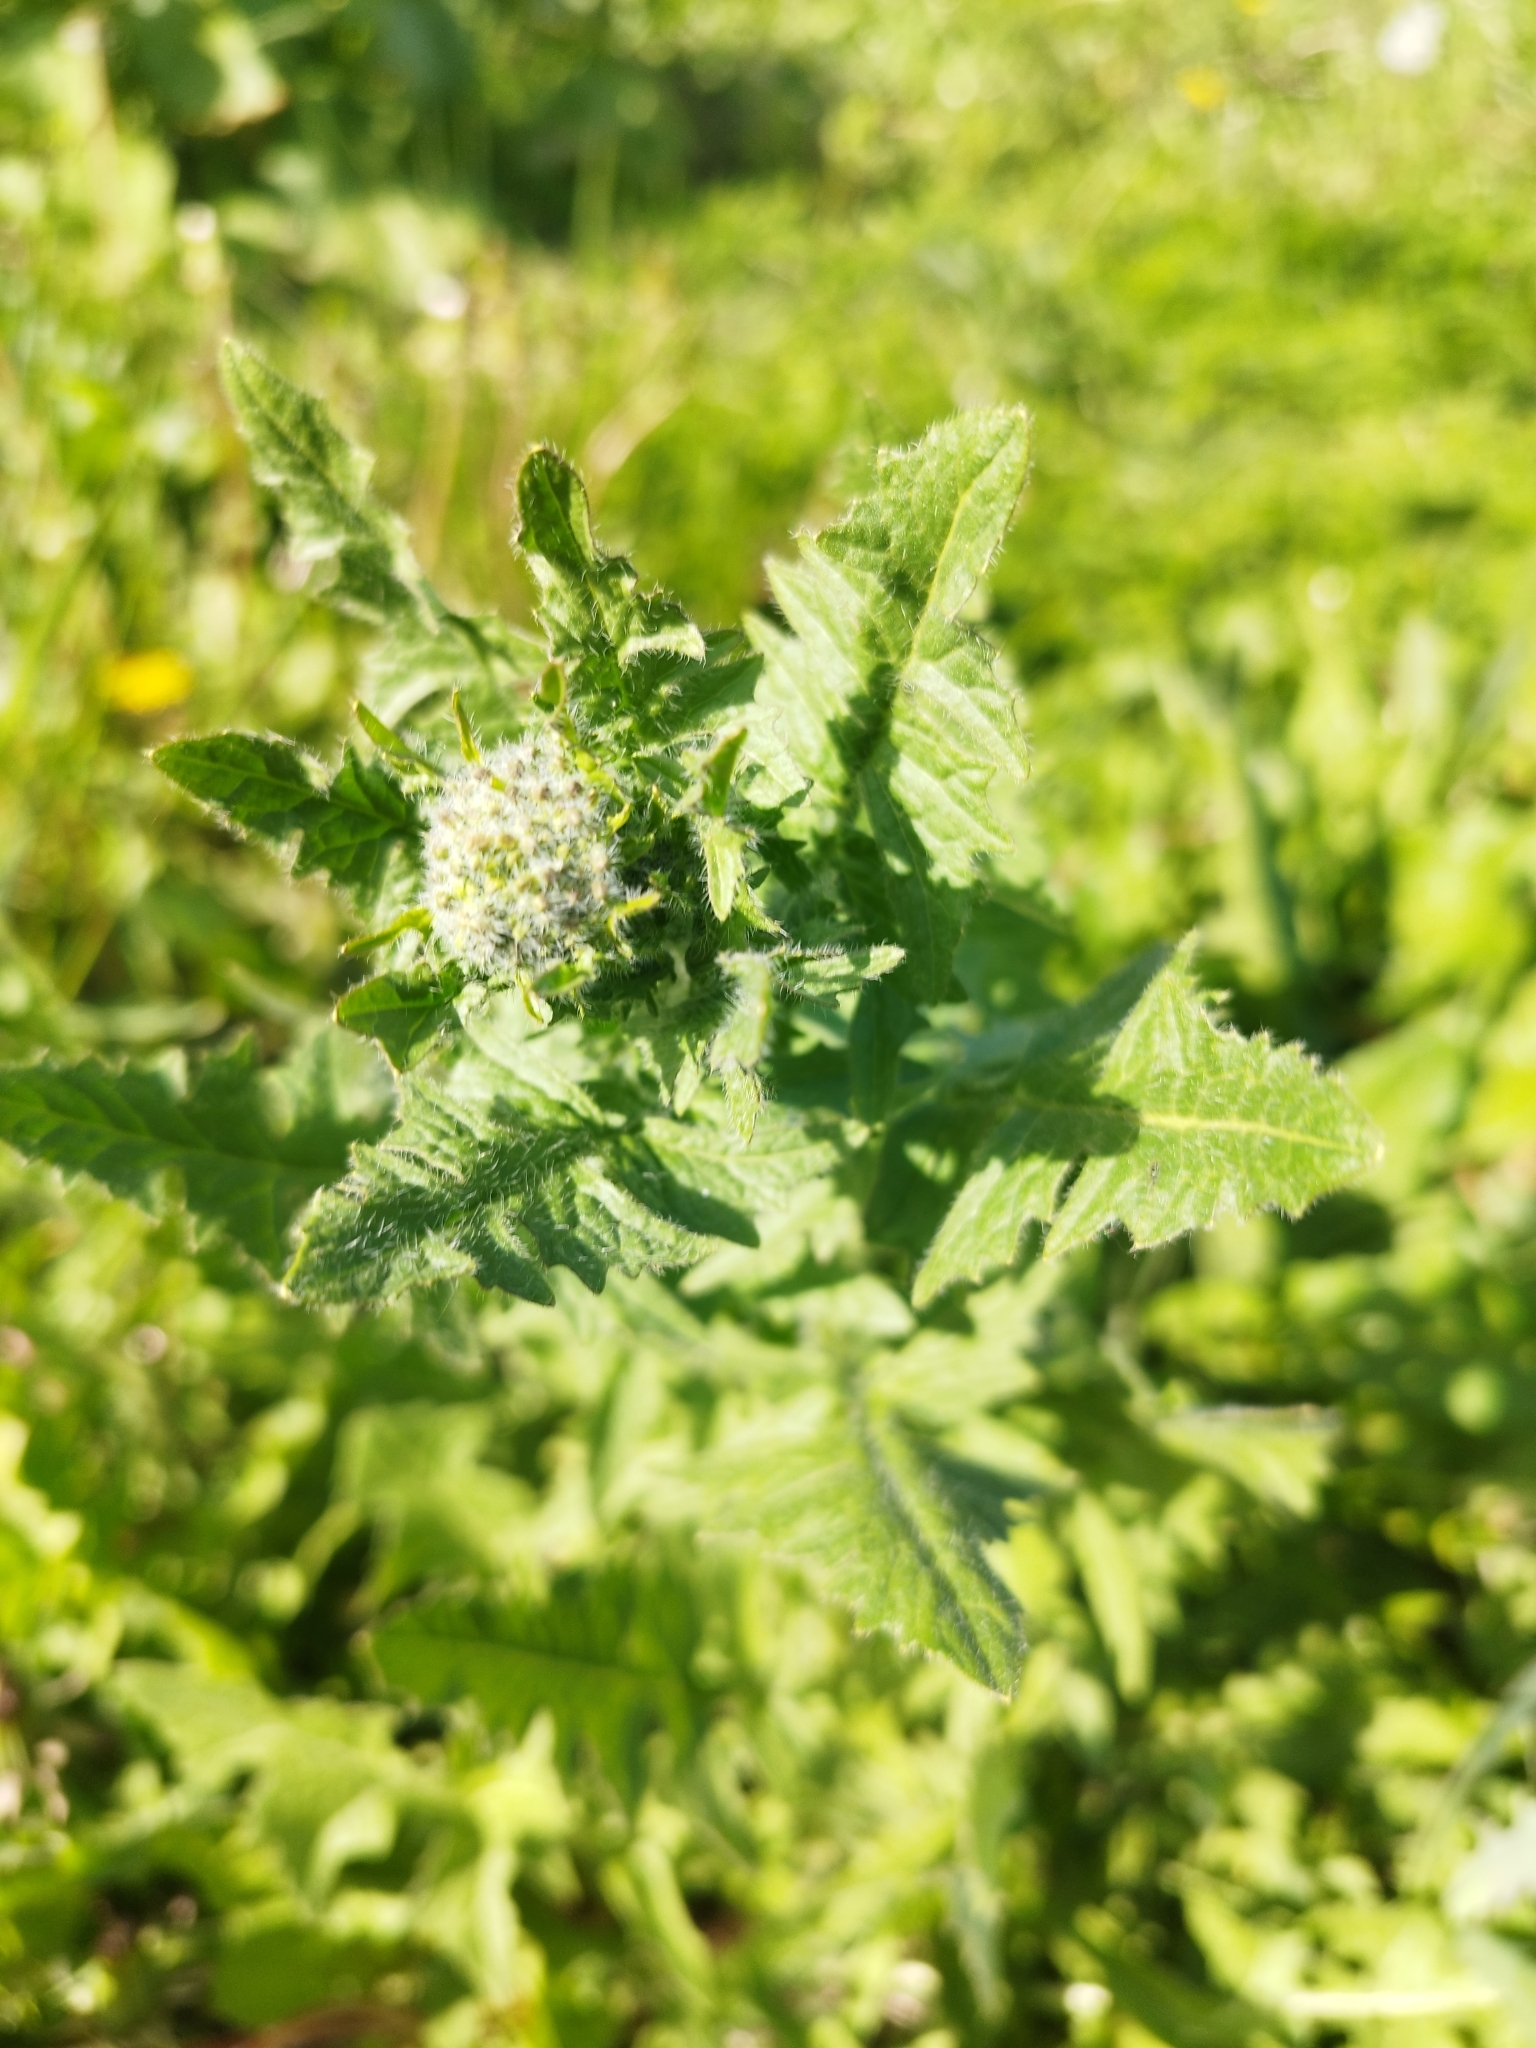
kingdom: Plantae
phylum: Tracheophyta
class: Magnoliopsida
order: Brassicales
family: Brassicaceae
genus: Sisymbrium
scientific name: Sisymbrium loeselii
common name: False london-rocket
